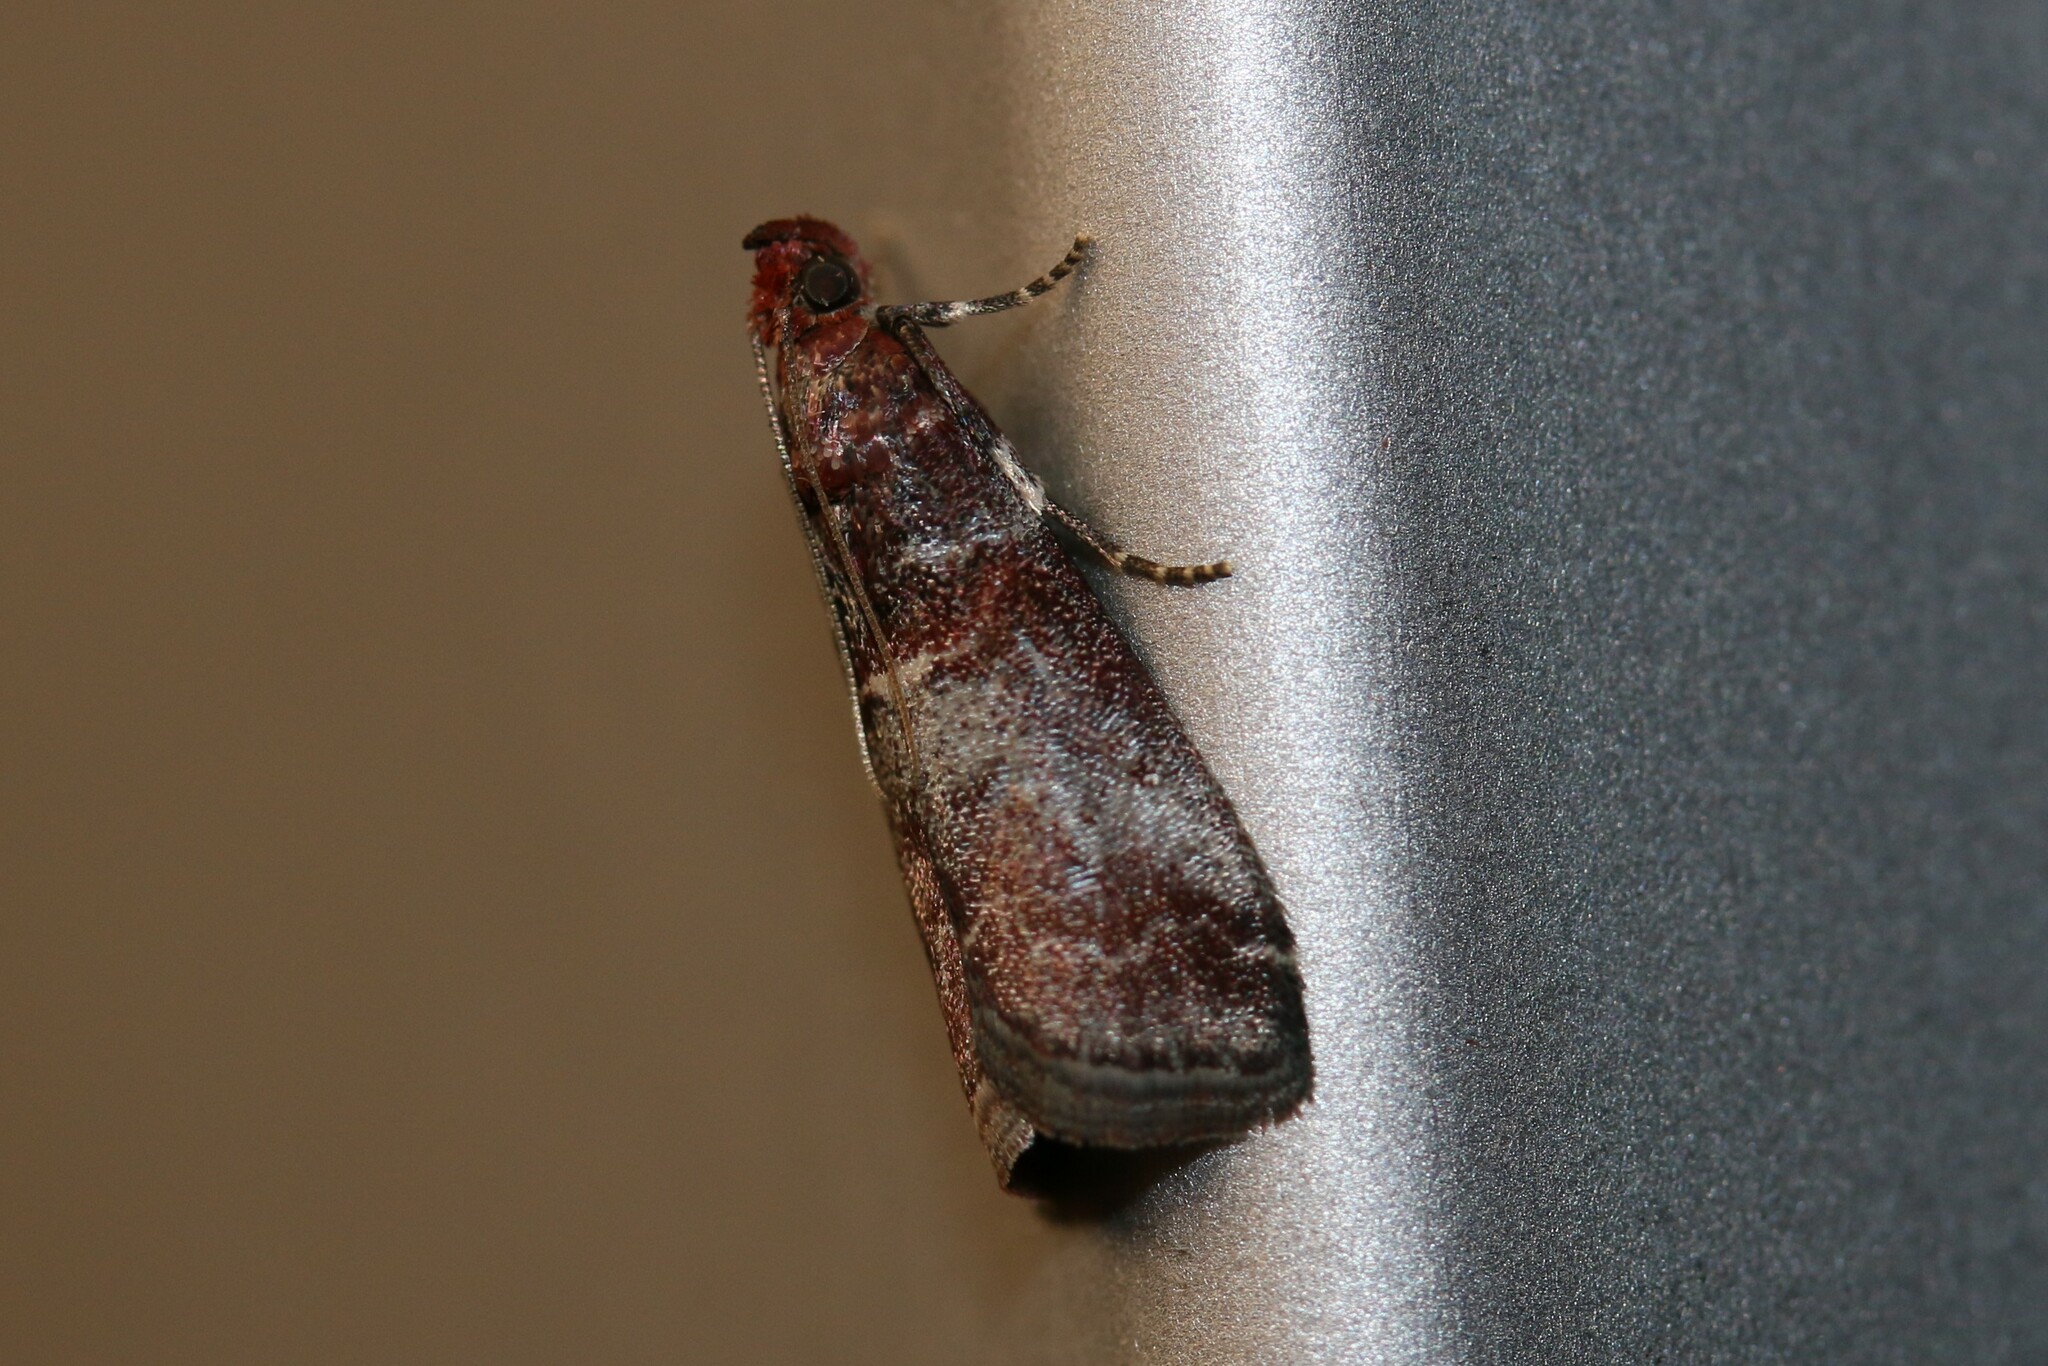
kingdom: Animalia
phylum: Arthropoda
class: Insecta
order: Lepidoptera
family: Pyralidae
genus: Acrobasis
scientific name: Acrobasis advenella
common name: Grey knot-horn
